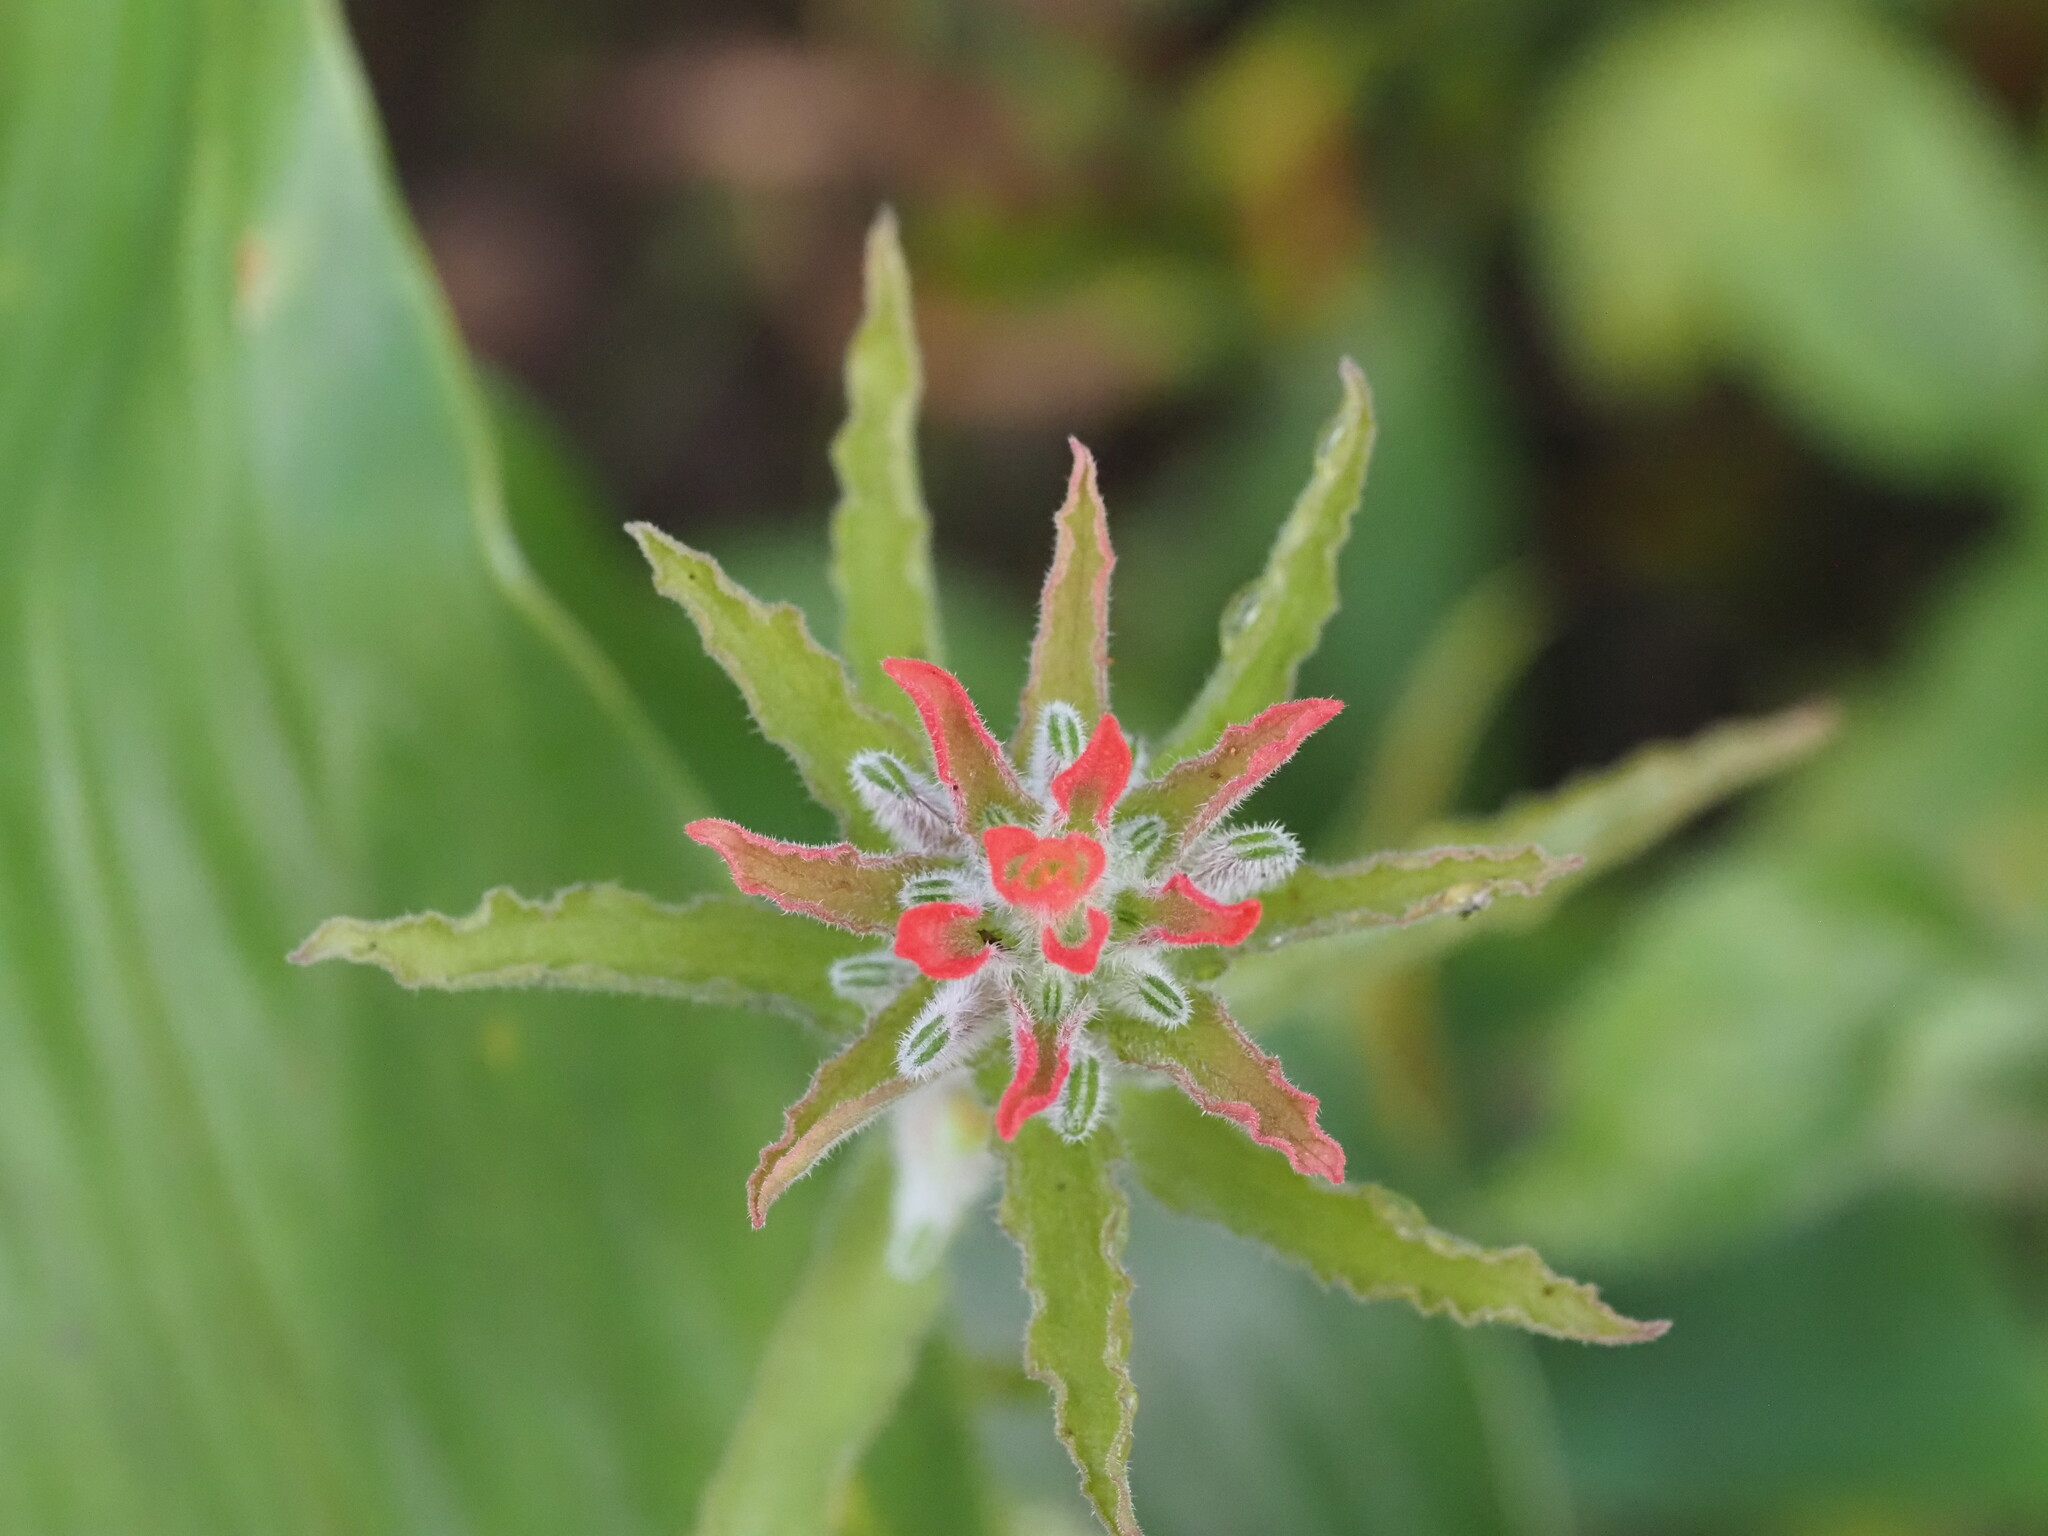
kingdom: Plantae
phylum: Tracheophyta
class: Magnoliopsida
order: Lamiales
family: Orobanchaceae
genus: Castilleja
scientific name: Castilleja arvensis
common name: Indian paintbrush
